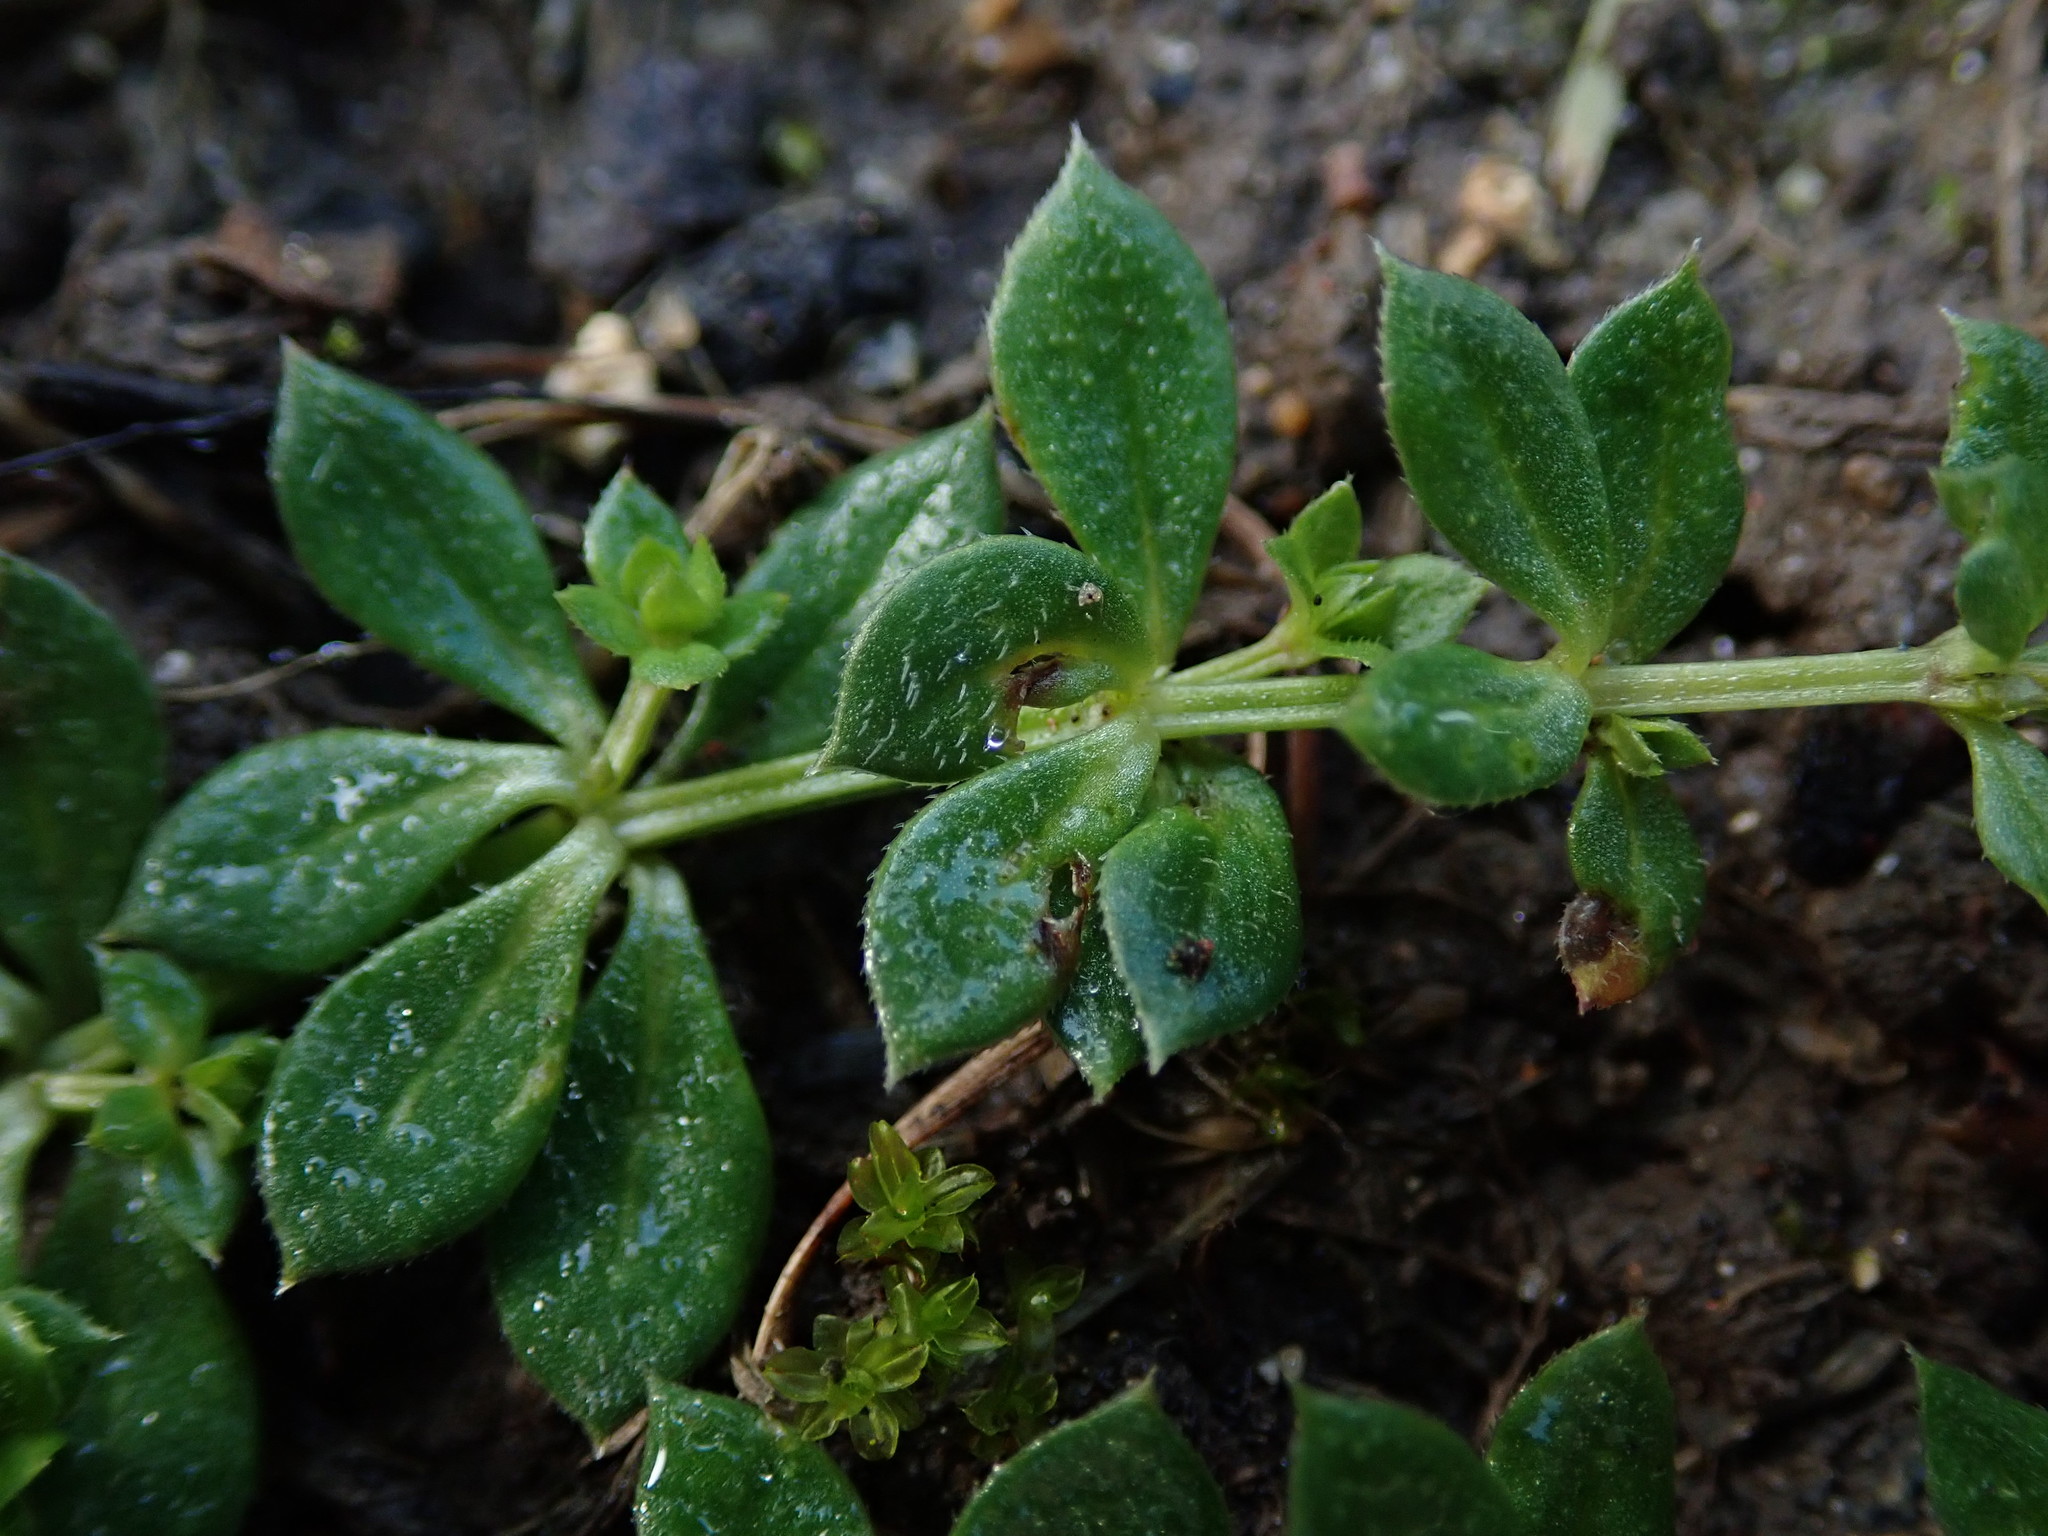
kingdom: Plantae
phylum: Tracheophyta
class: Magnoliopsida
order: Gentianales
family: Rubiaceae
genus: Sherardia
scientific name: Sherardia arvensis
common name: Field madder
